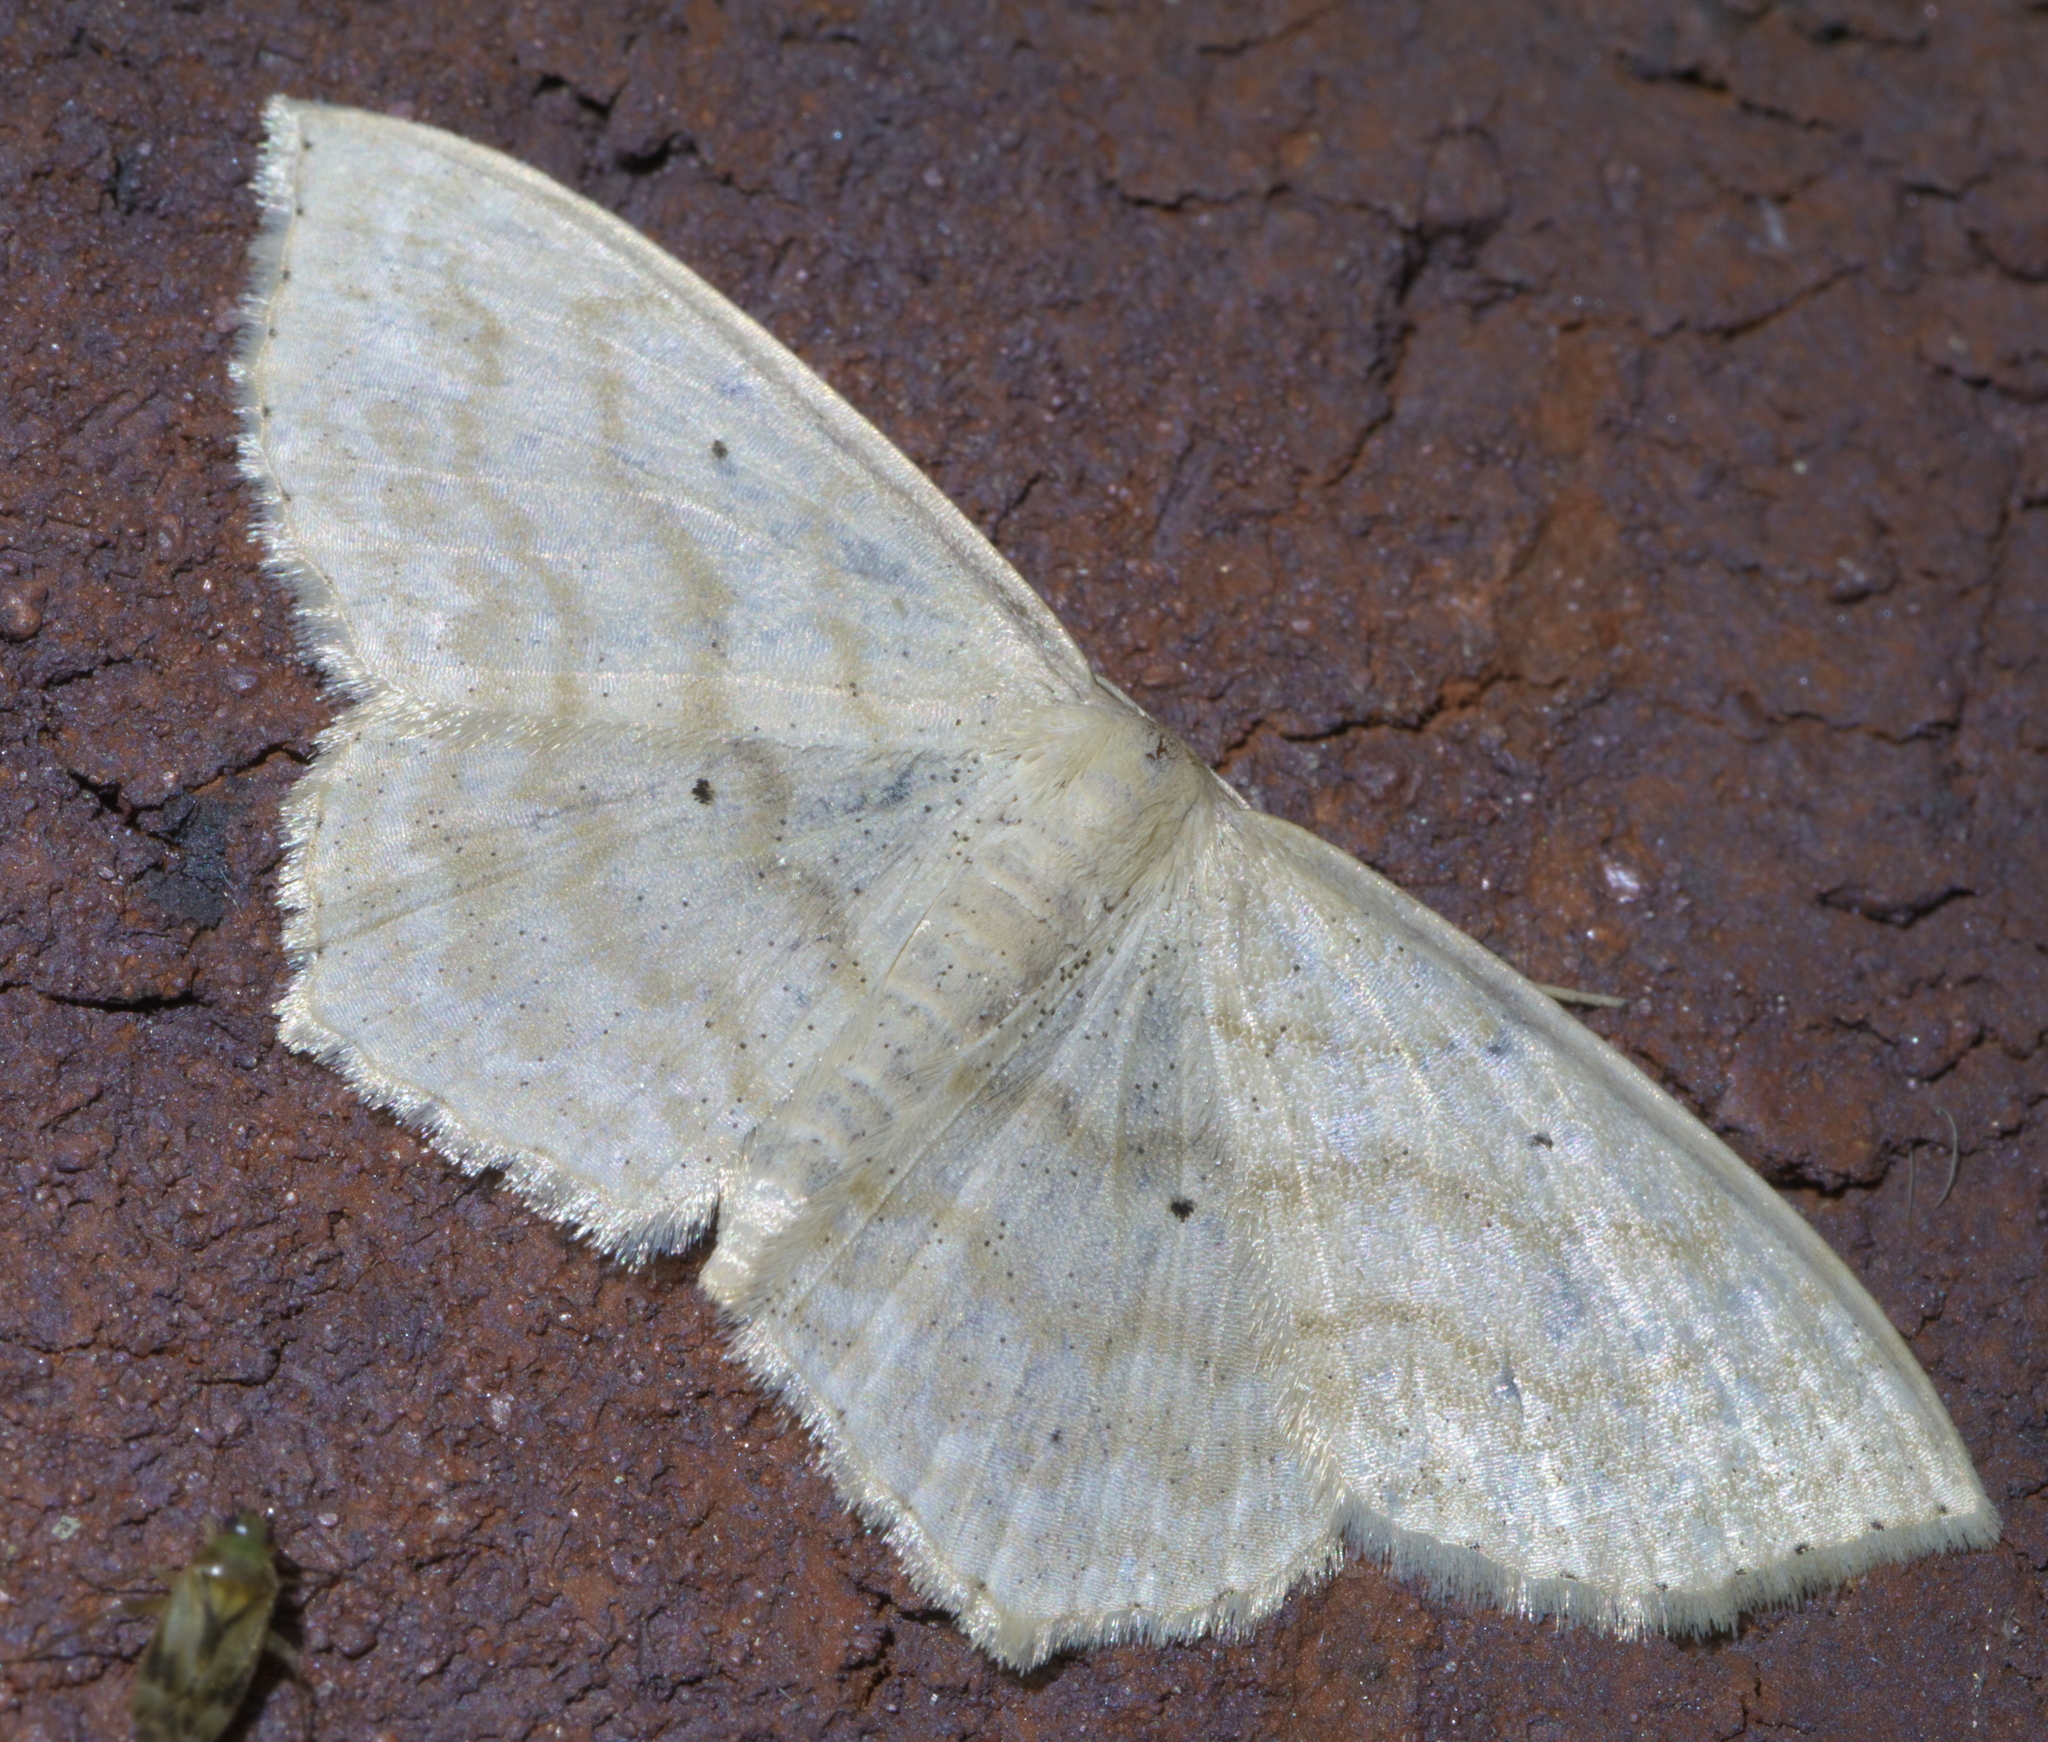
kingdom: Animalia
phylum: Arthropoda
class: Insecta
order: Lepidoptera
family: Geometridae
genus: Scopula
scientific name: Scopula limboundata
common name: Large lace border
